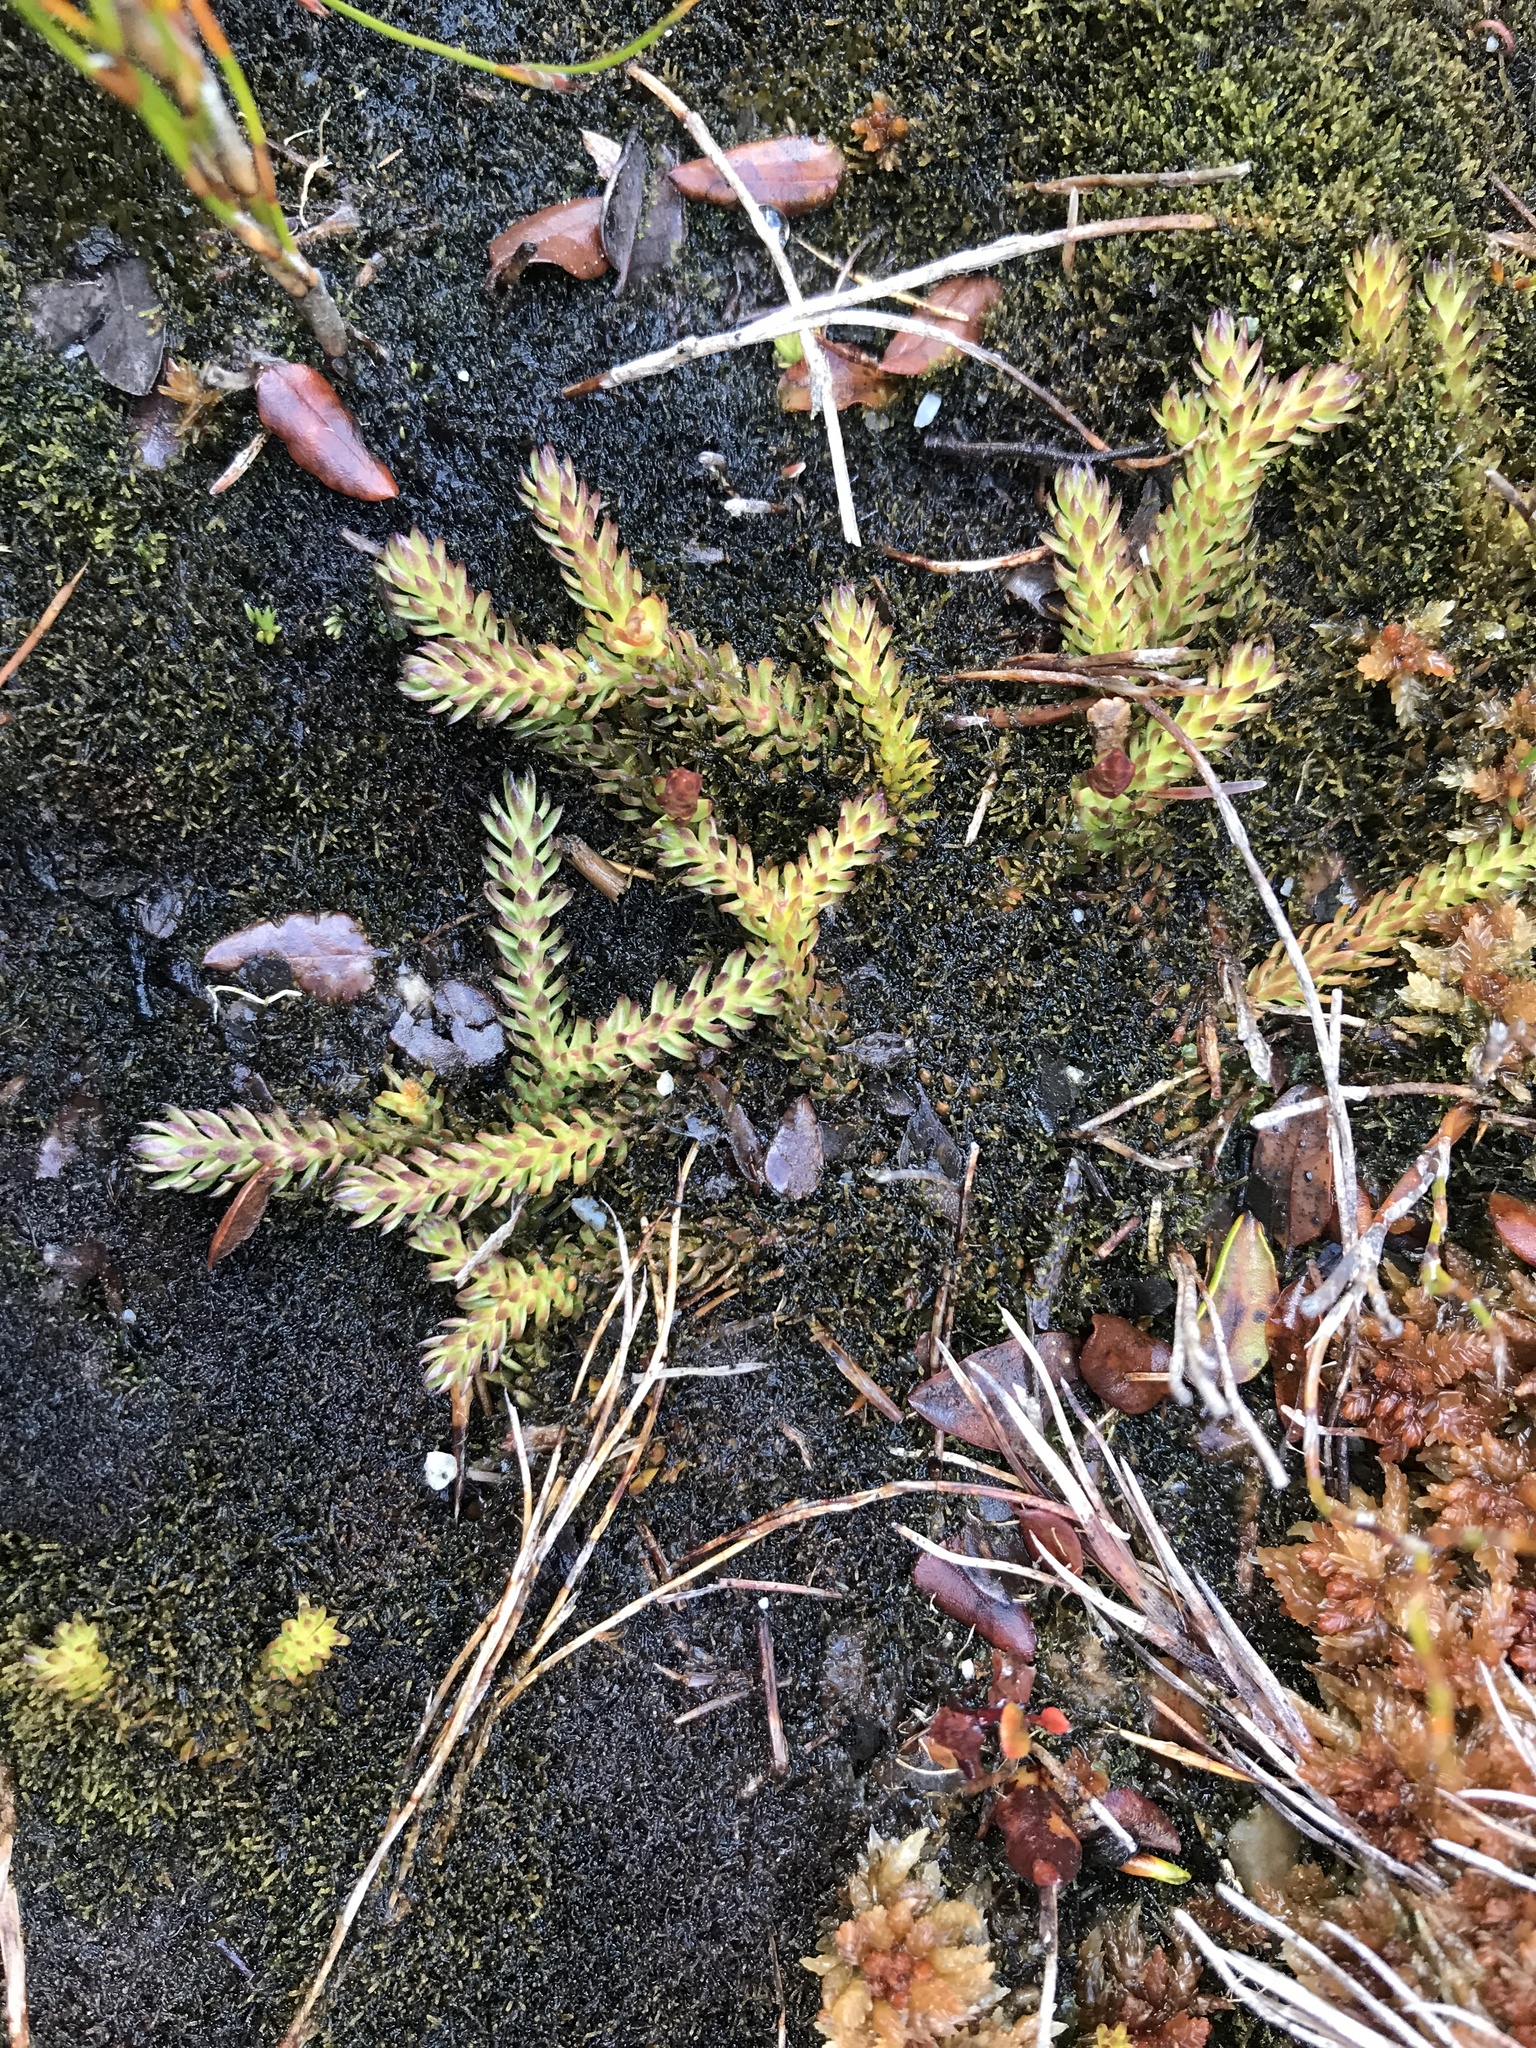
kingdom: Plantae
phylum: Tracheophyta
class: Lycopodiopsida
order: Lycopodiales
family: Lycopodiaceae
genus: Lateristachys
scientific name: Lateristachys diffusa
